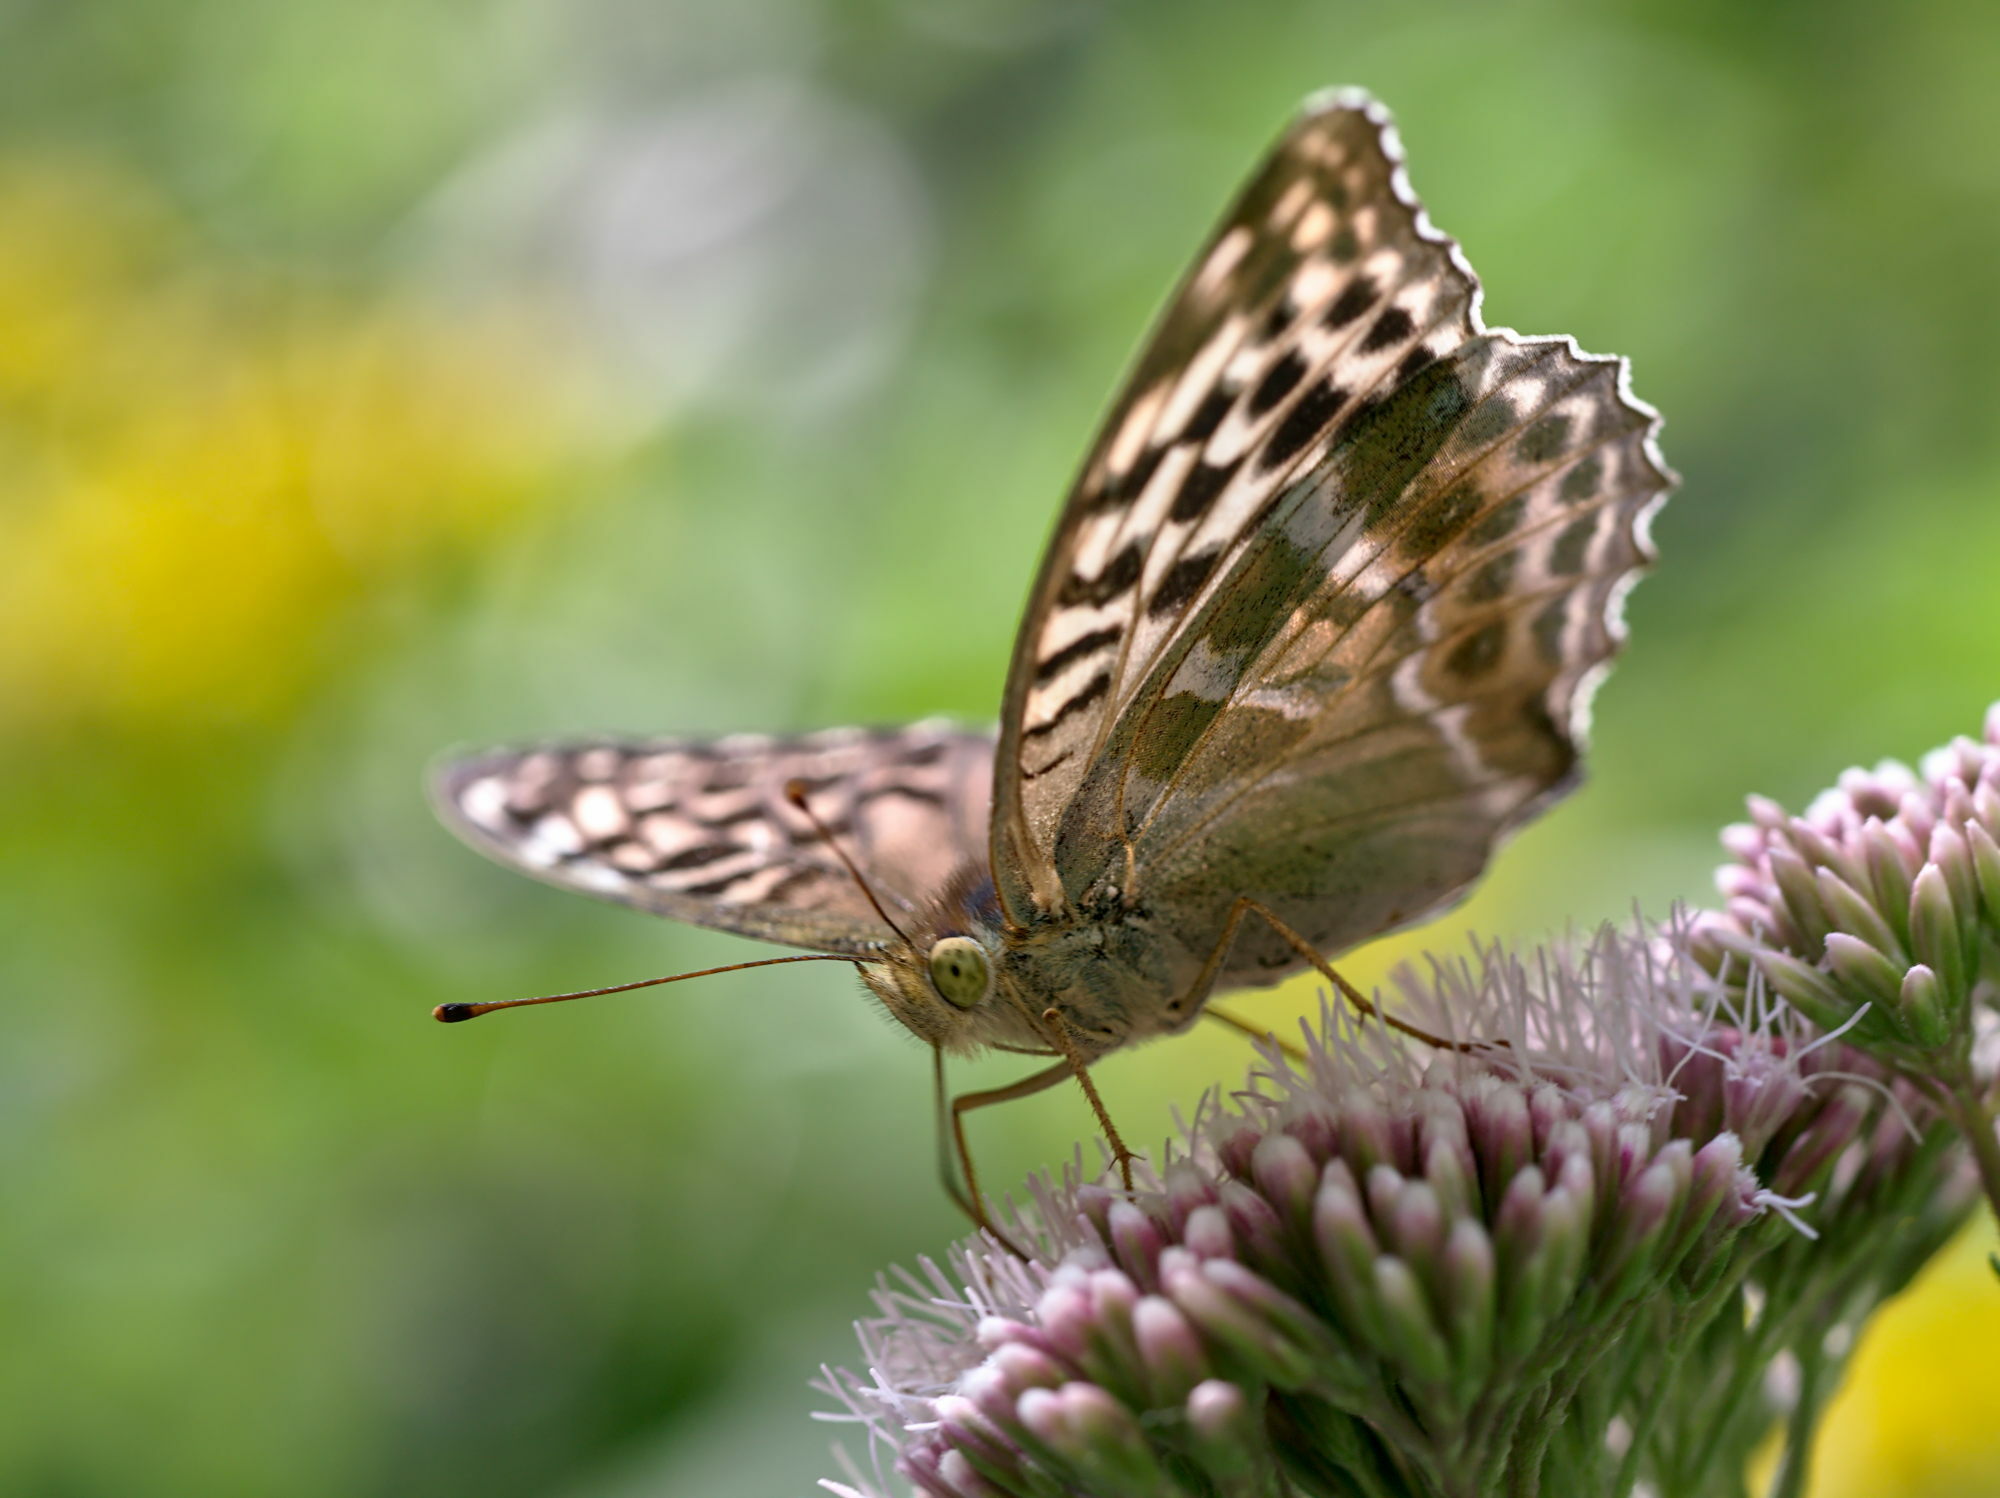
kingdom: Animalia
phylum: Arthropoda
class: Insecta
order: Lepidoptera
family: Nymphalidae
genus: Argynnis
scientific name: Argynnis paphia
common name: Silver-washed fritillary
